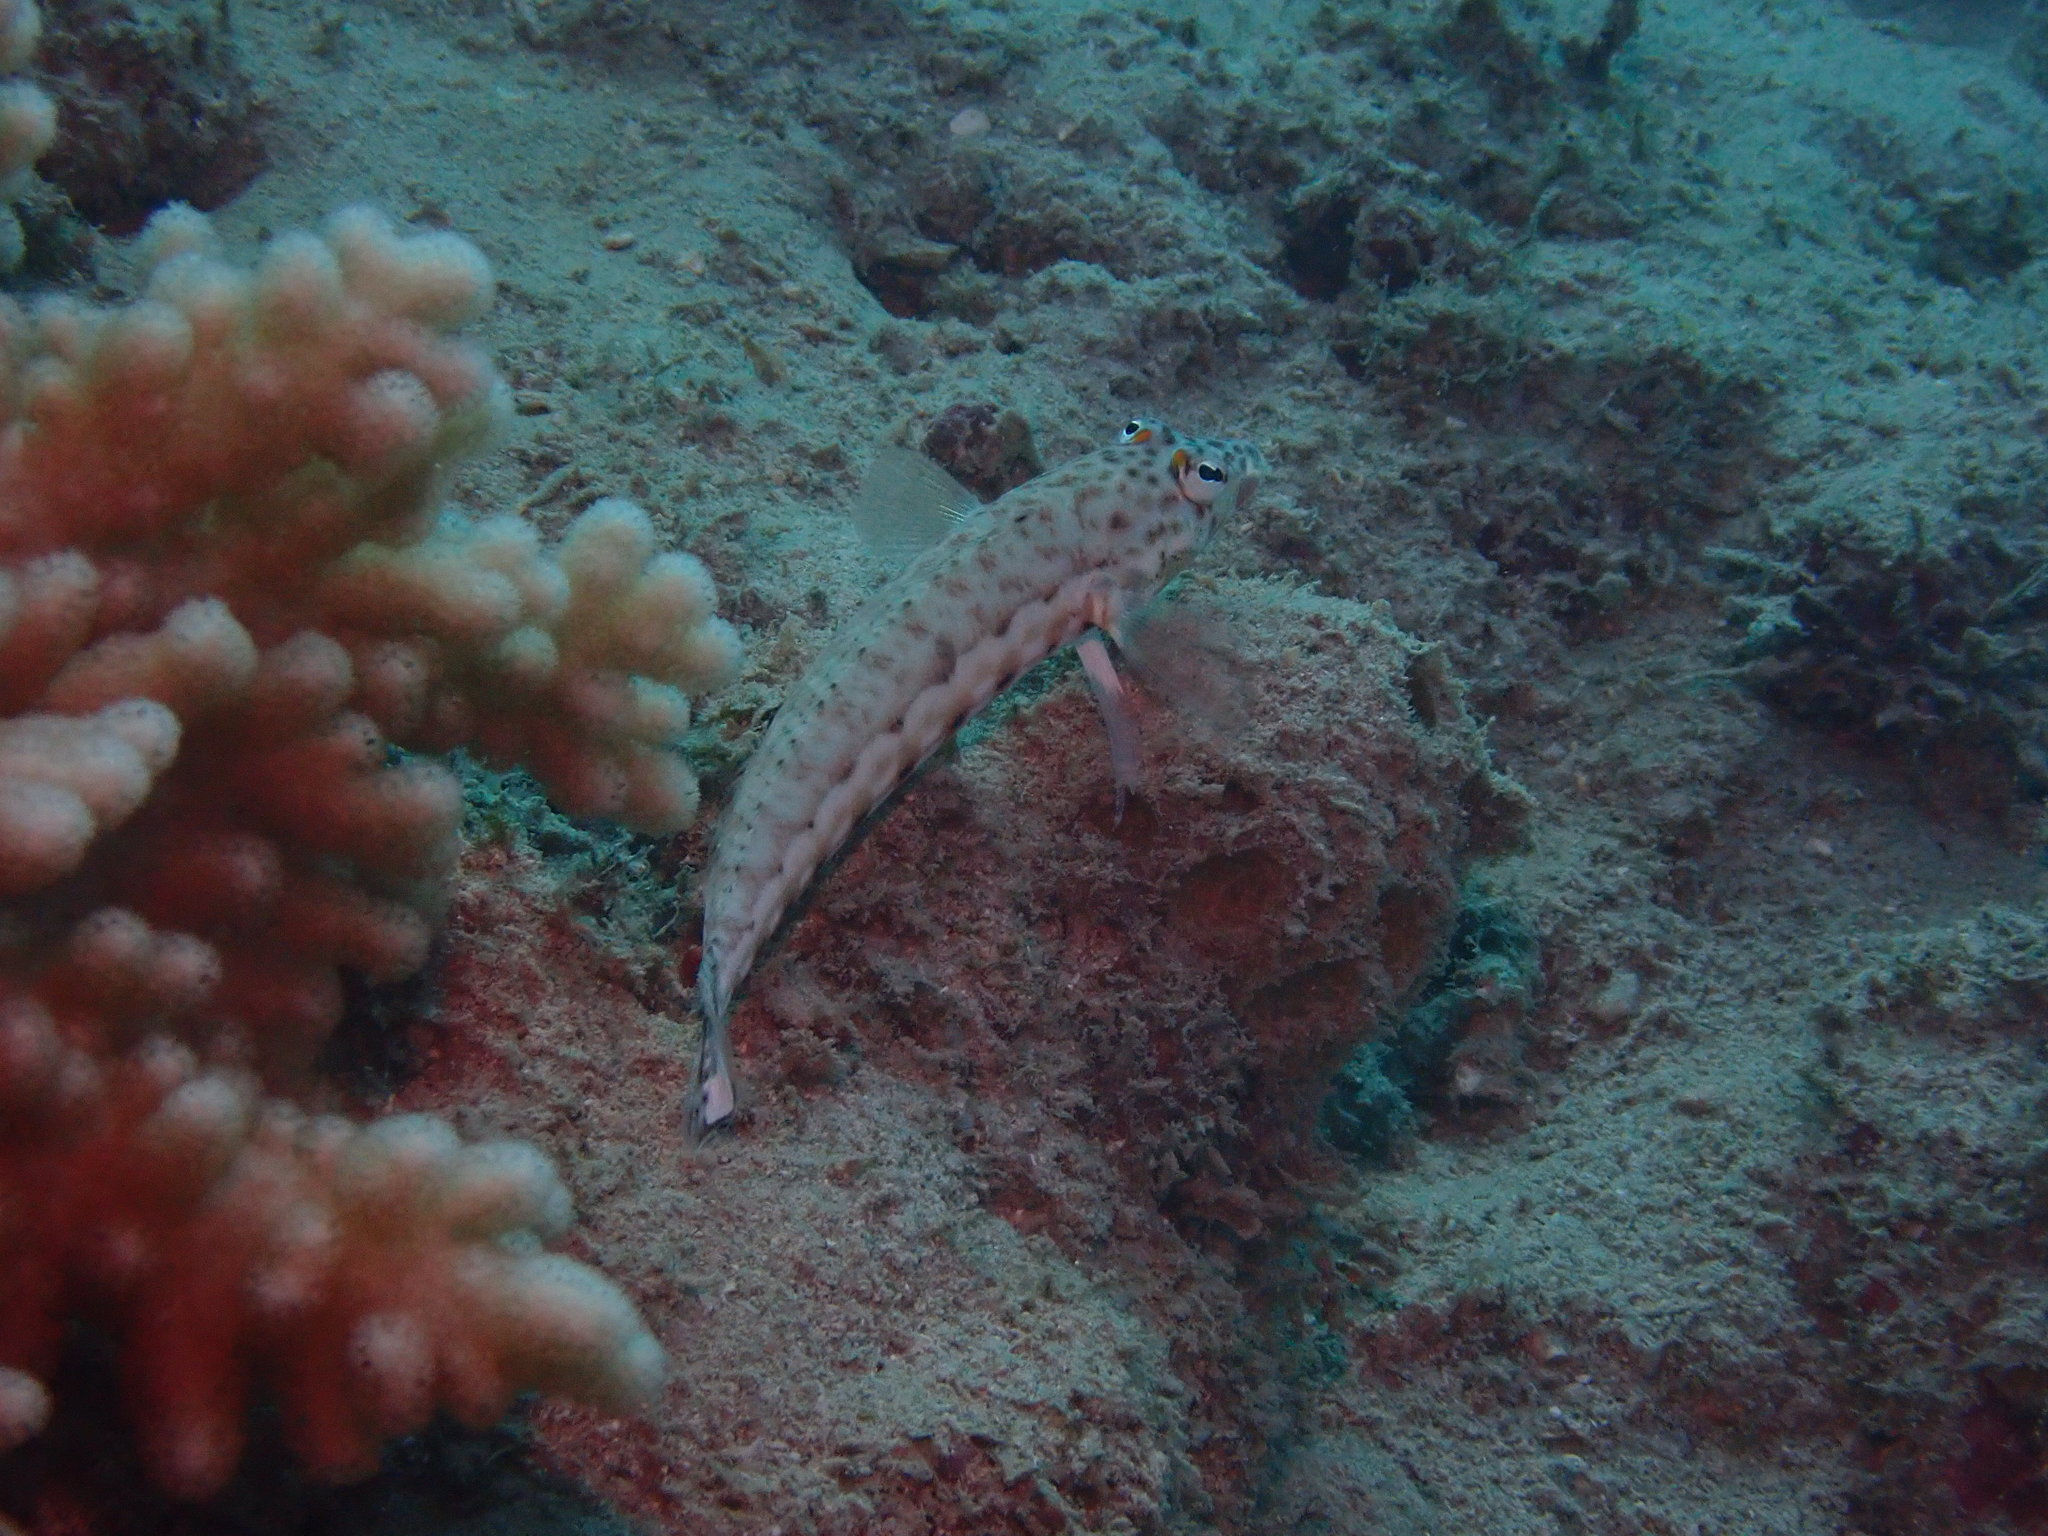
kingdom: Animalia
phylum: Chordata
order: Perciformes
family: Pinguipedidae
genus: Parapercis
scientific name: Parapercis clathrata
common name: Latticed sandperch
